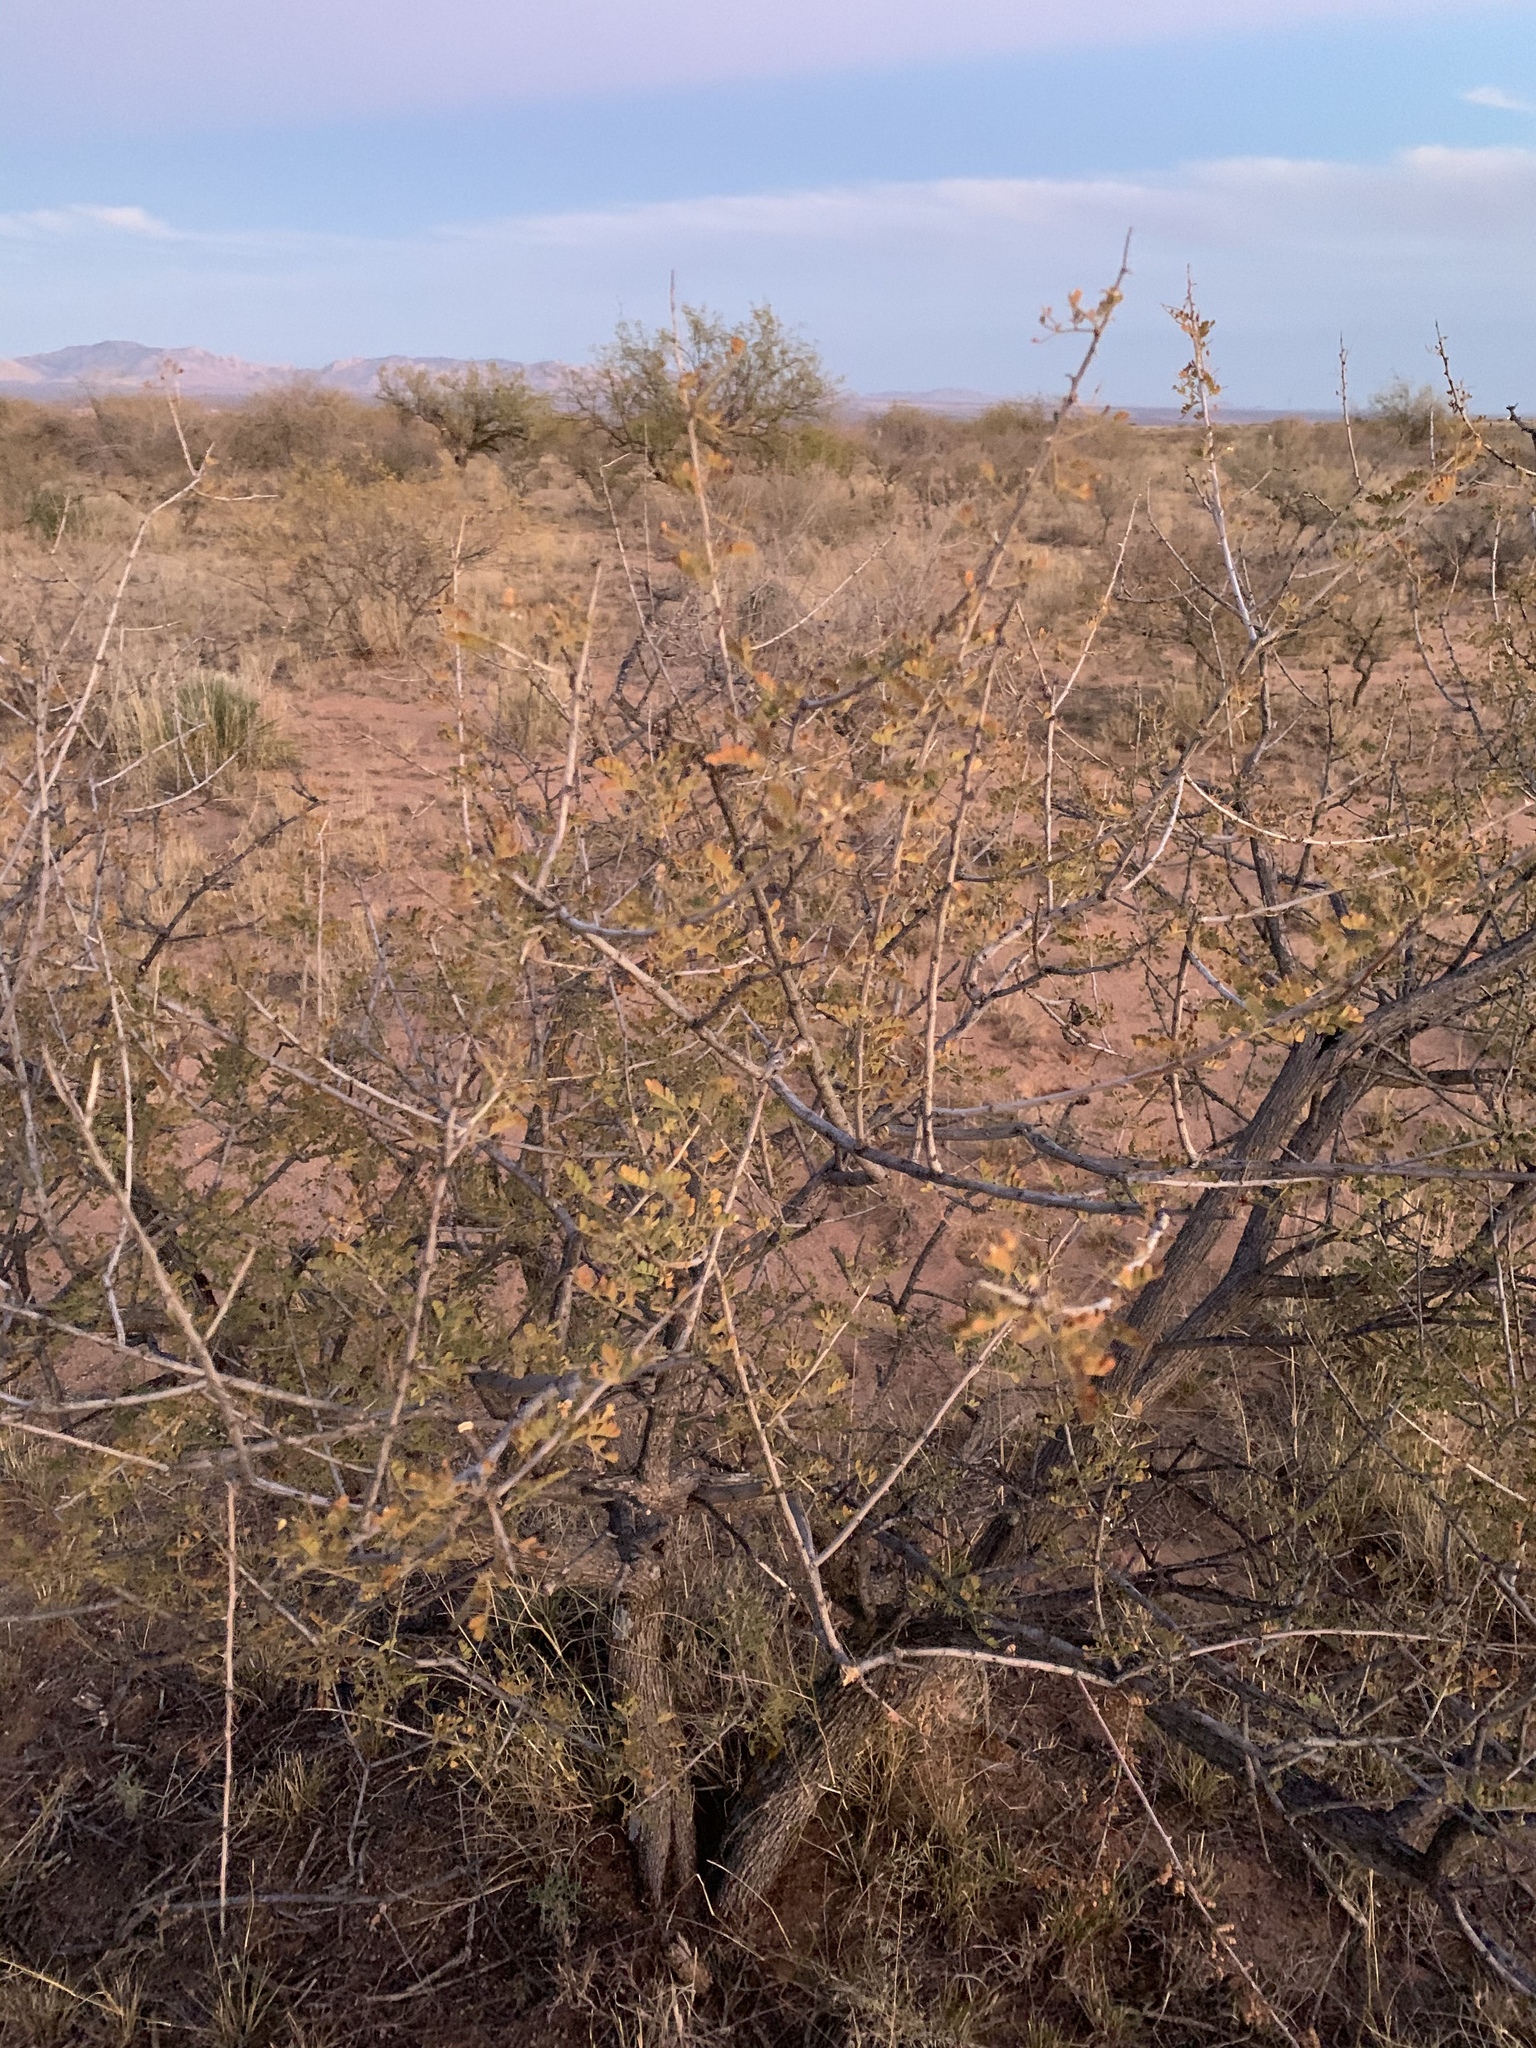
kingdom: Plantae
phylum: Tracheophyta
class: Magnoliopsida
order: Fabales
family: Fabaceae
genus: Senegalia
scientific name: Senegalia greggii
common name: Texas-mimosa
